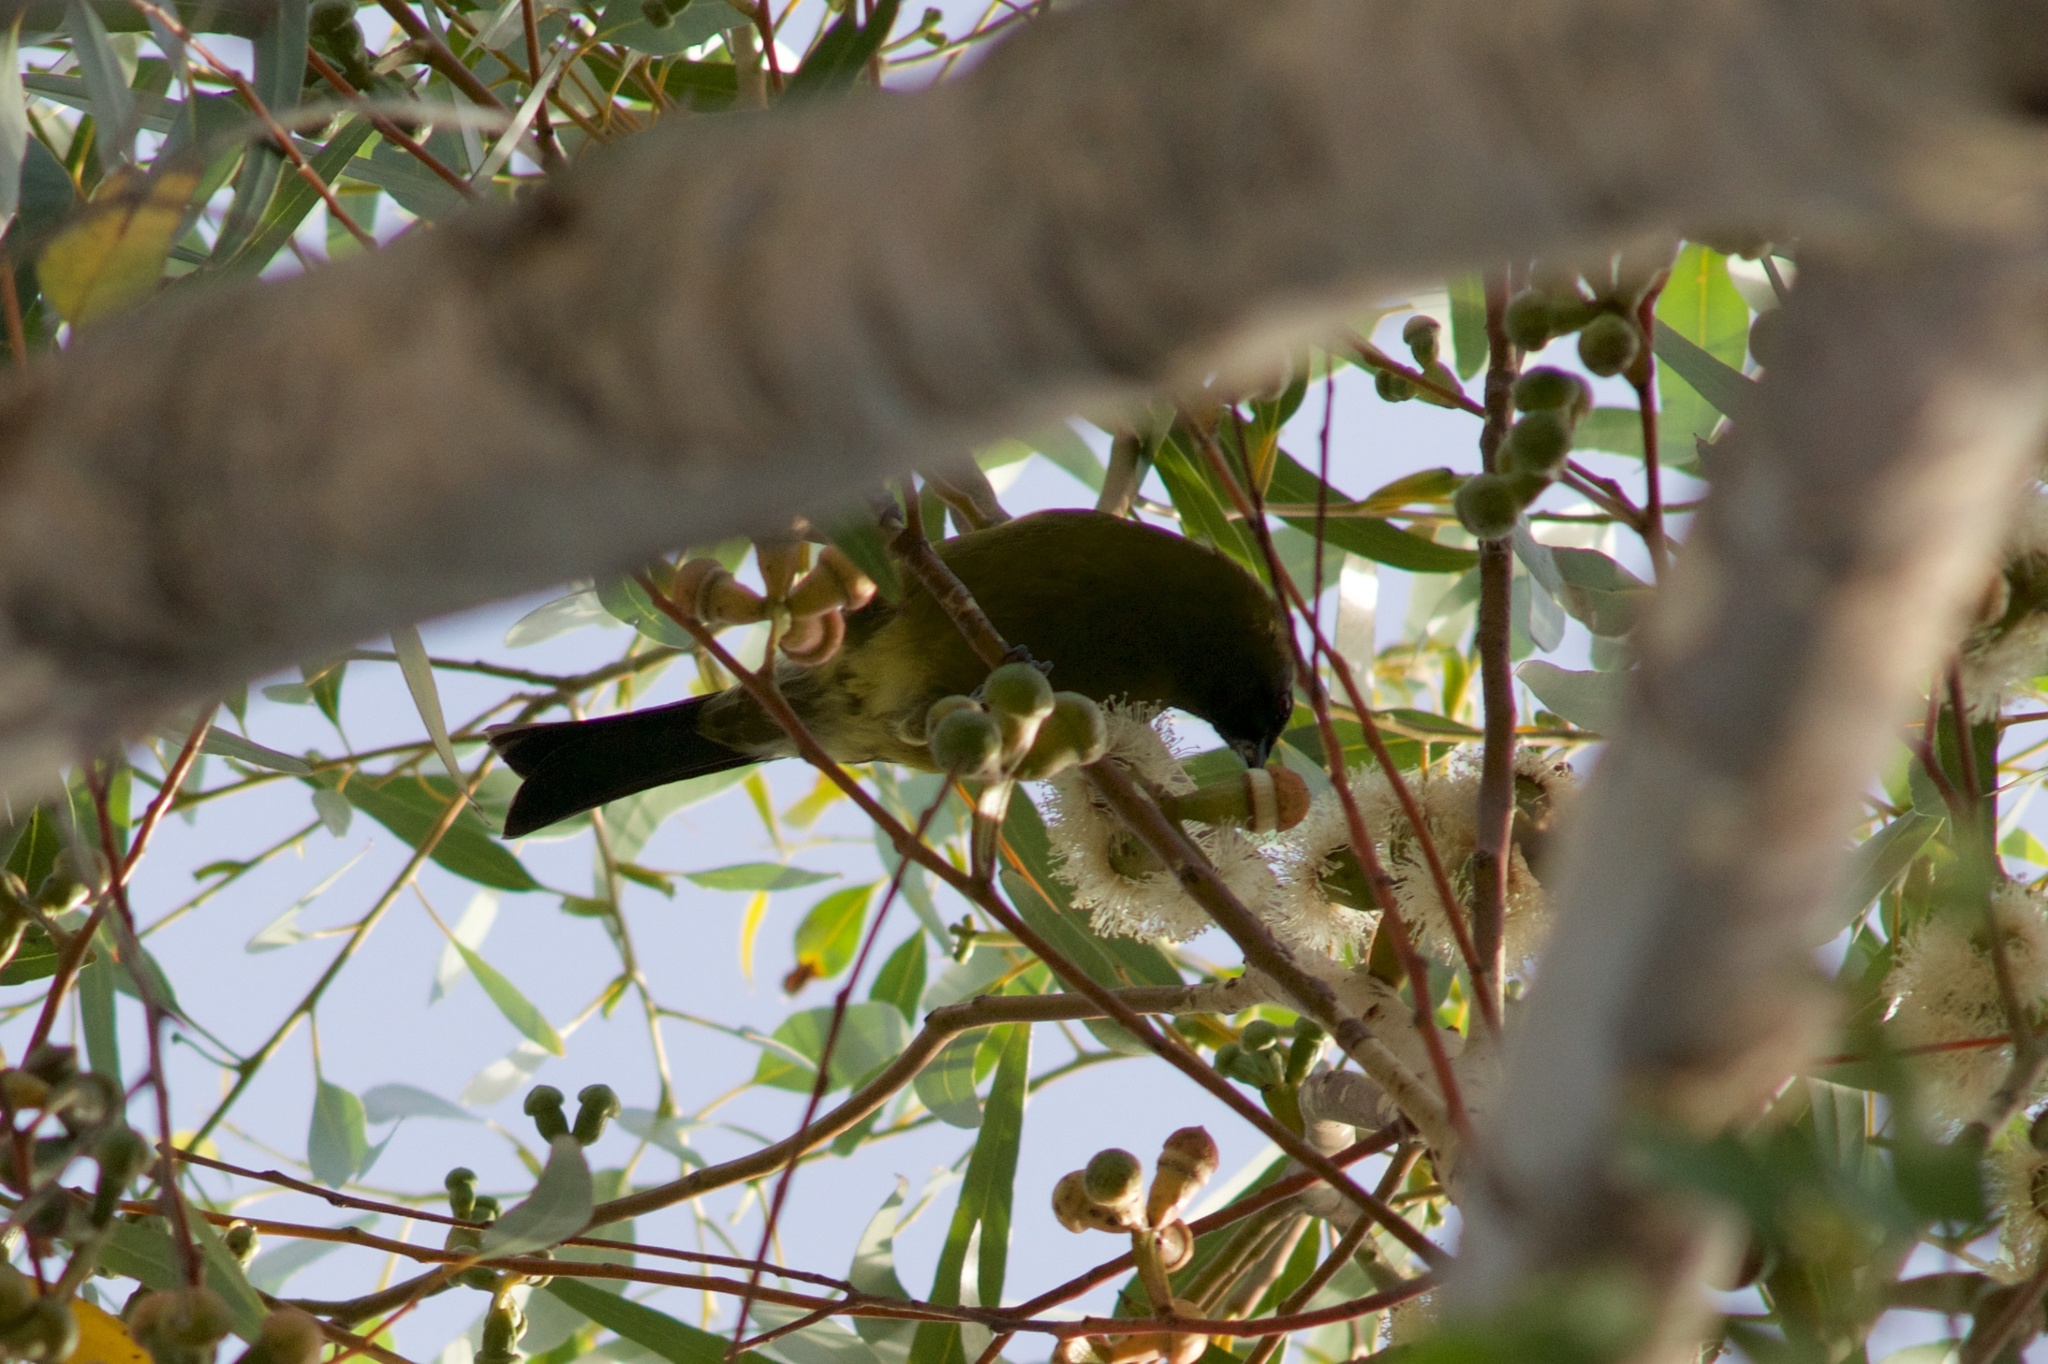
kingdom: Animalia
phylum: Chordata
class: Aves
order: Passeriformes
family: Meliphagidae
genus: Anthornis
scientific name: Anthornis melanura
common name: New zealand bellbird
